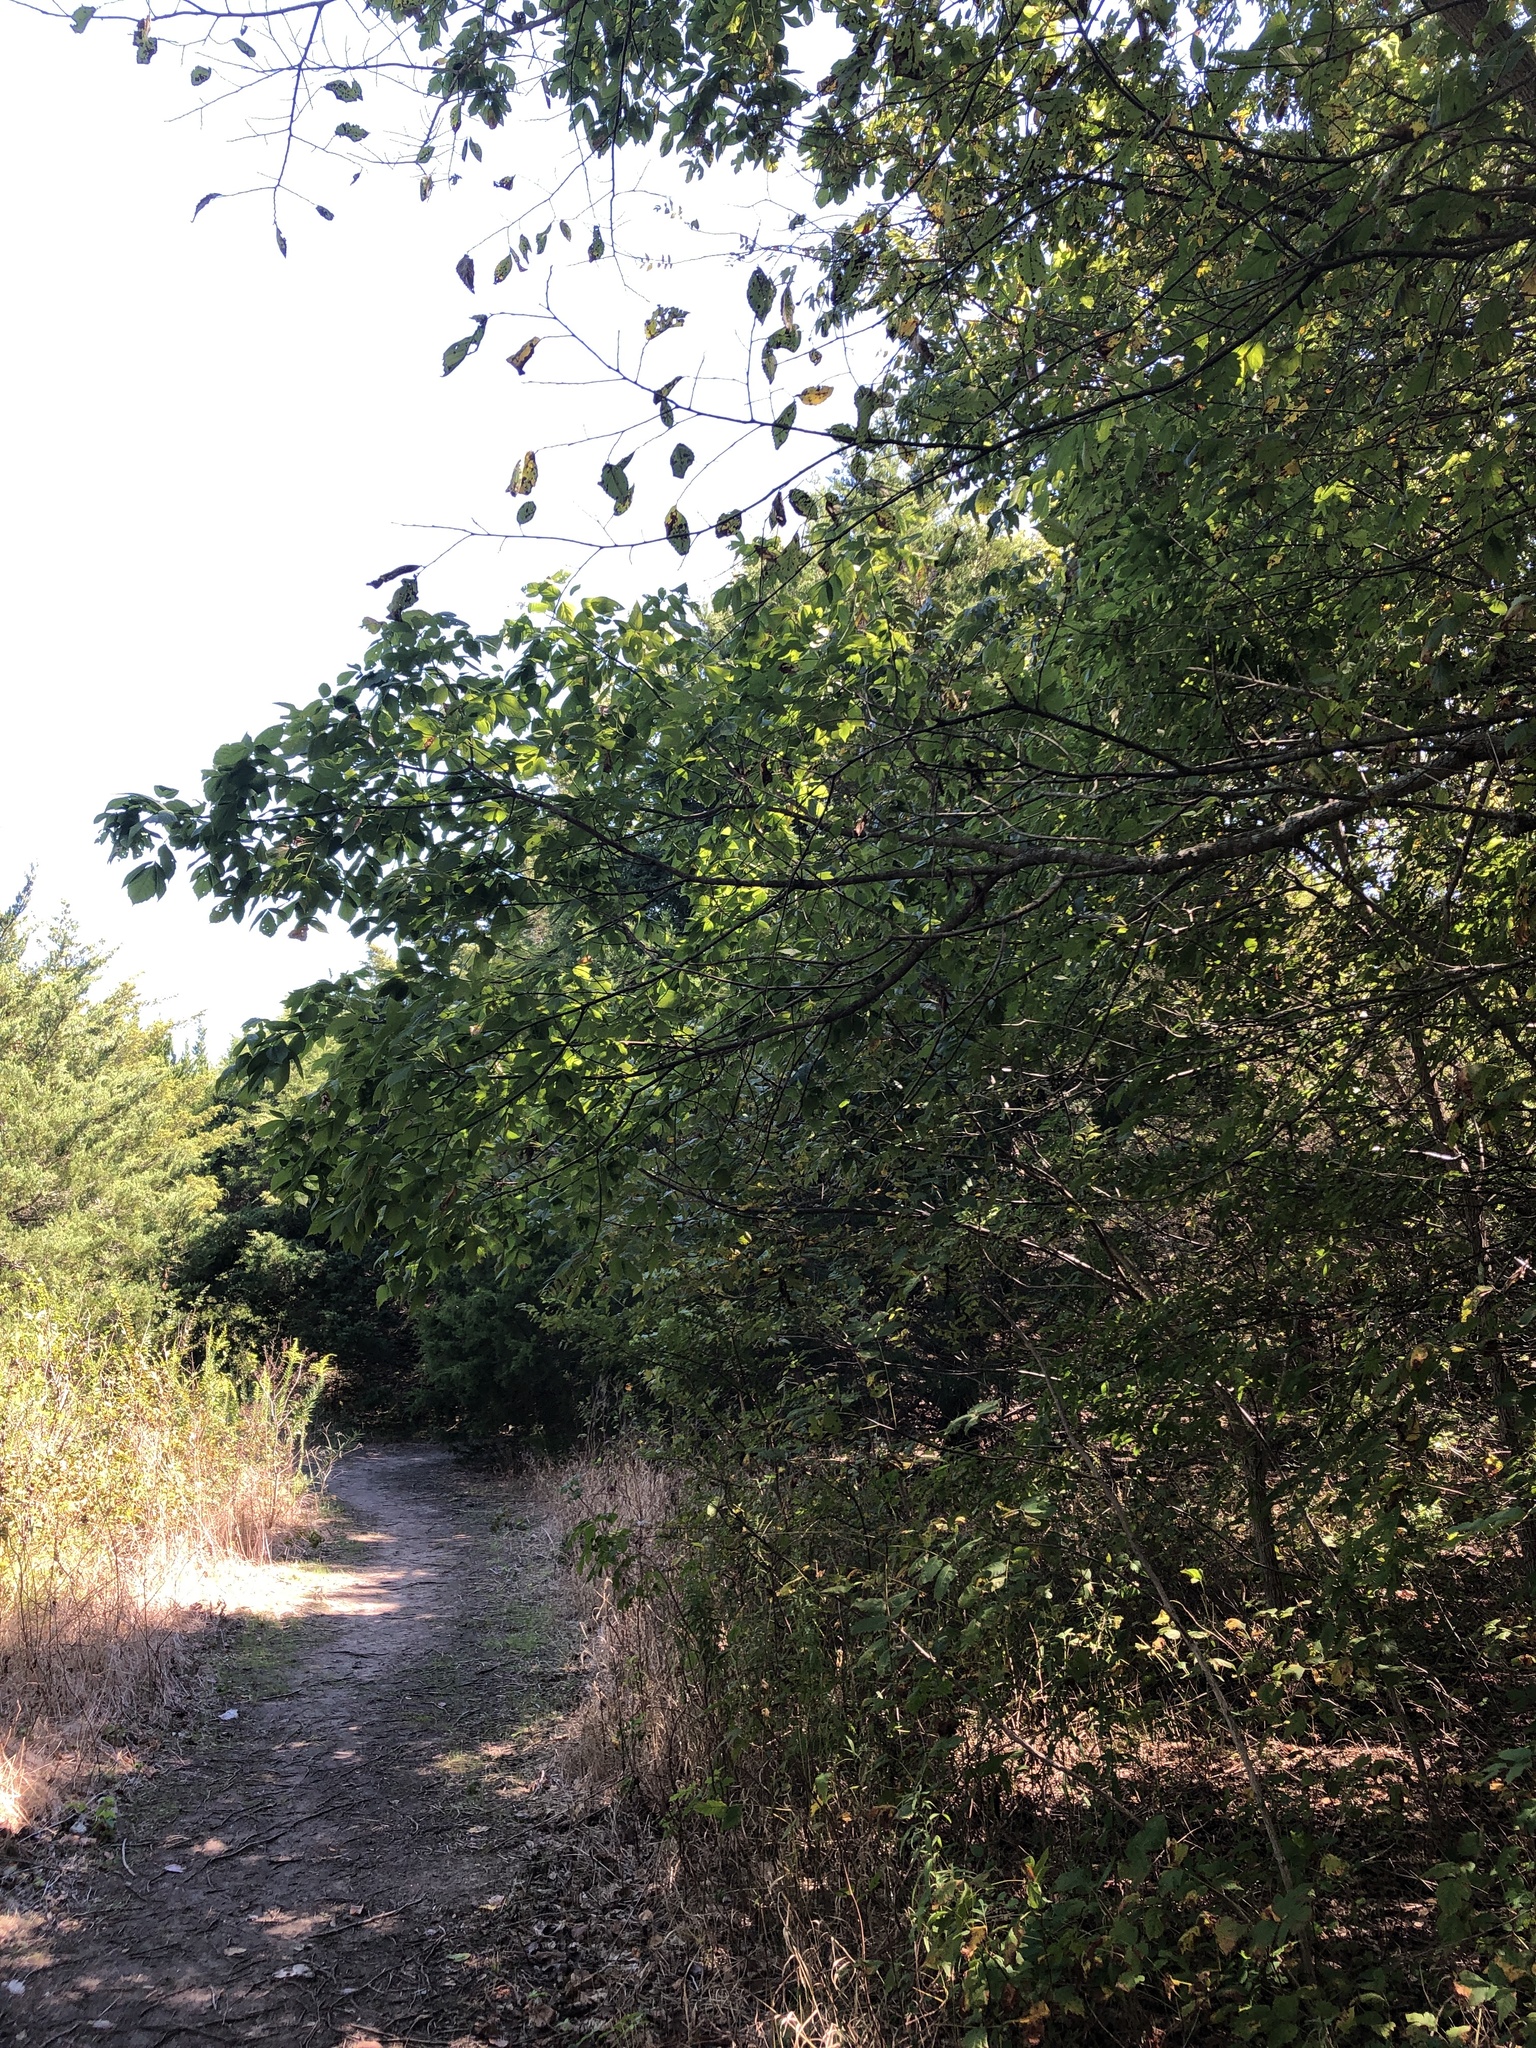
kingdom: Plantae
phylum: Tracheophyta
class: Magnoliopsida
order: Sapindales
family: Sapindaceae
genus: Acer
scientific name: Acer negundo
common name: Ashleaf maple
